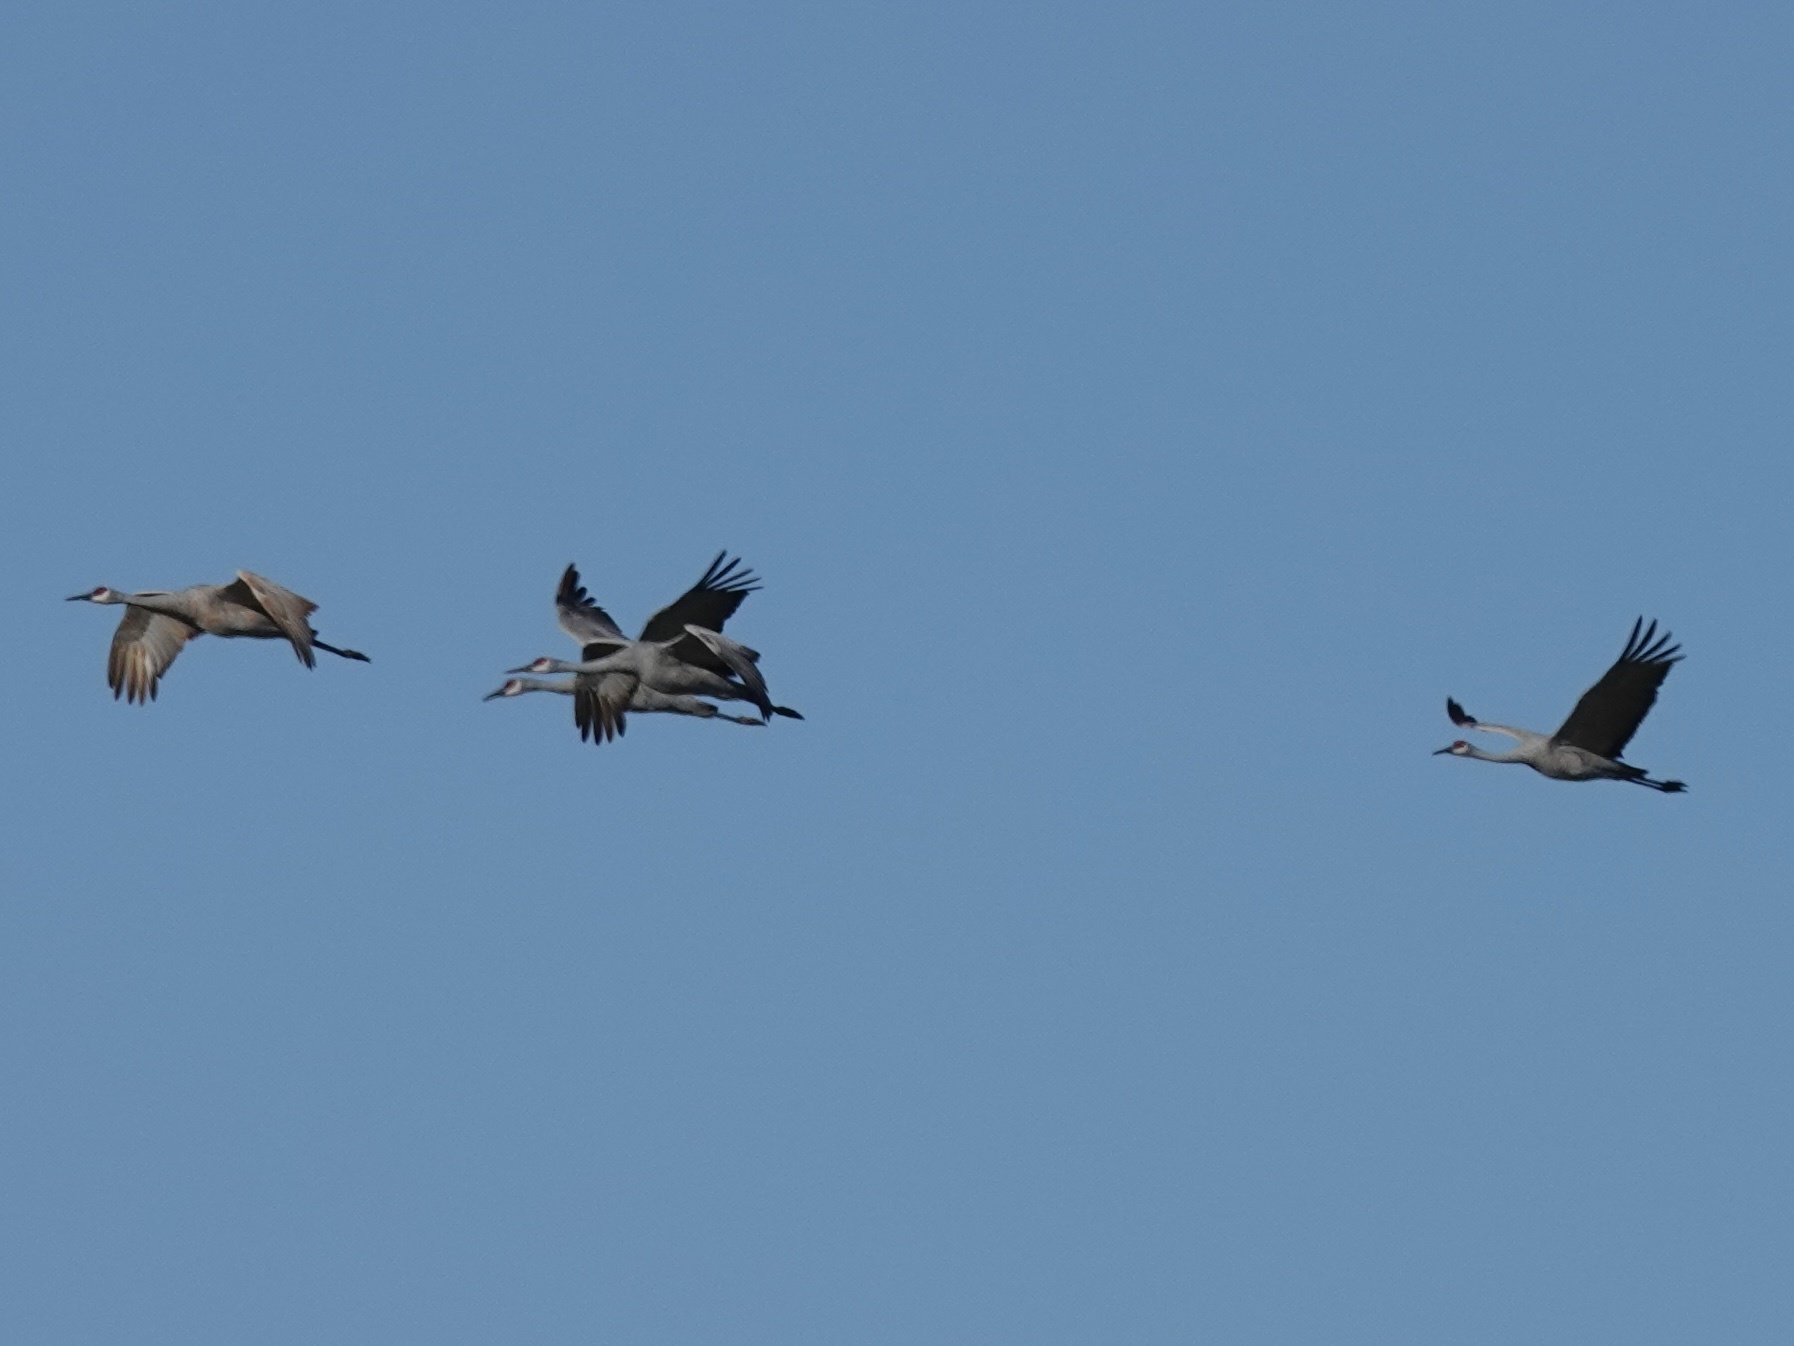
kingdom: Animalia
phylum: Chordata
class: Aves
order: Gruiformes
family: Gruidae
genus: Grus
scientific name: Grus canadensis
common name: Sandhill crane
